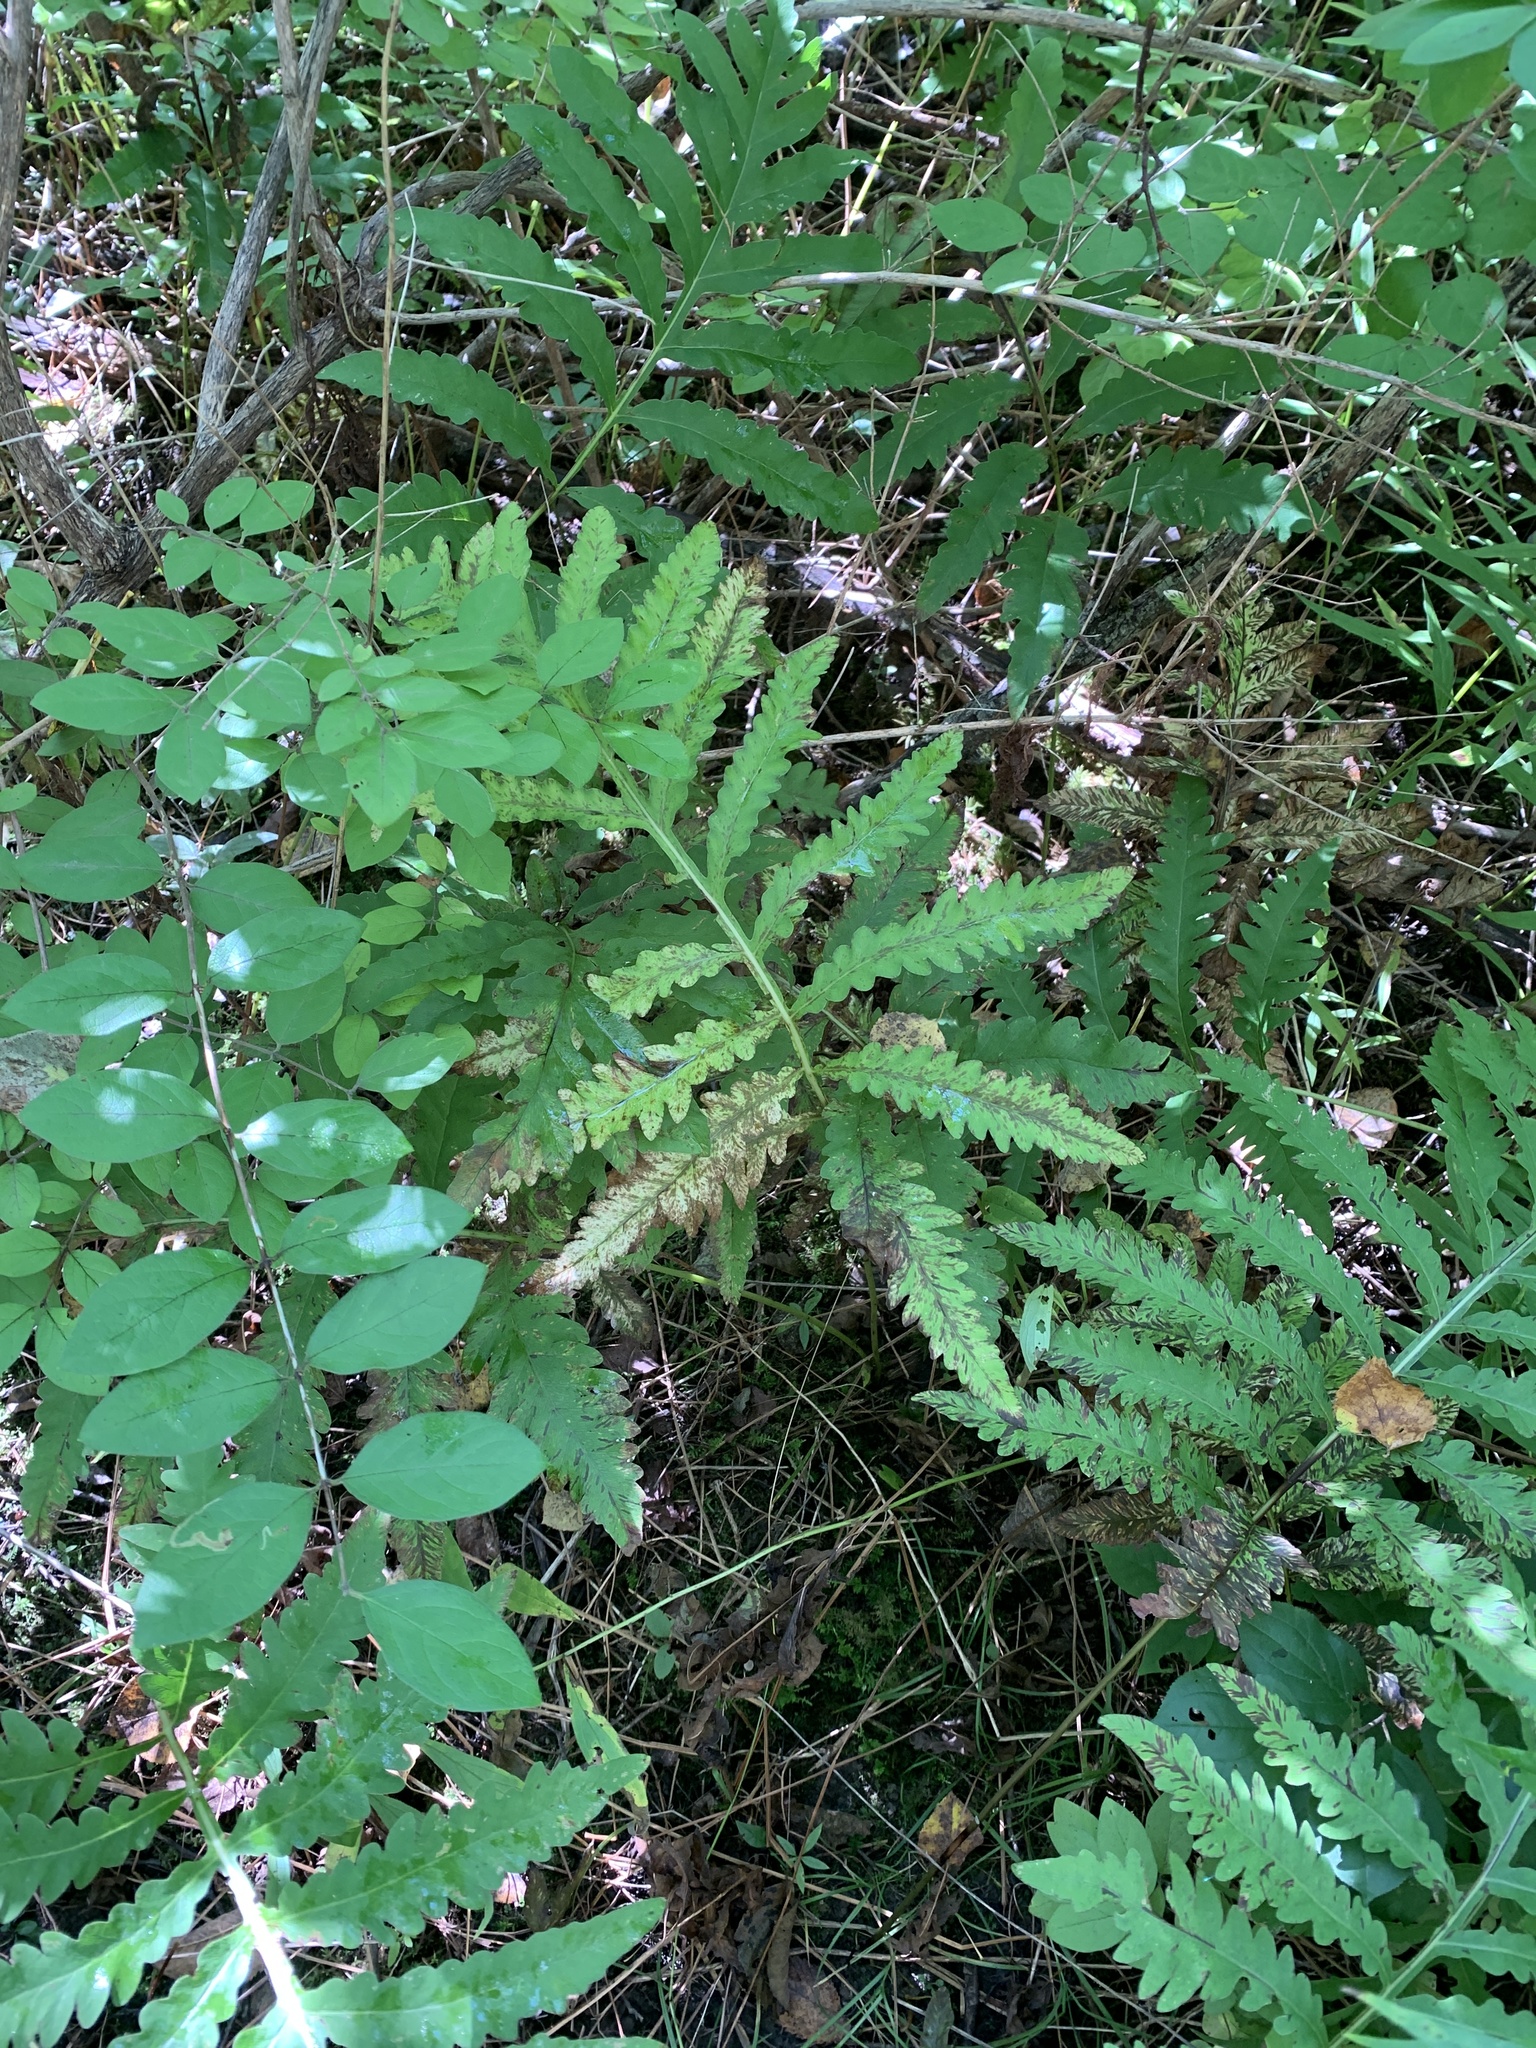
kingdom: Plantae
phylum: Tracheophyta
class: Polypodiopsida
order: Polypodiales
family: Onocleaceae
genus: Onoclea
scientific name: Onoclea sensibilis
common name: Sensitive fern
